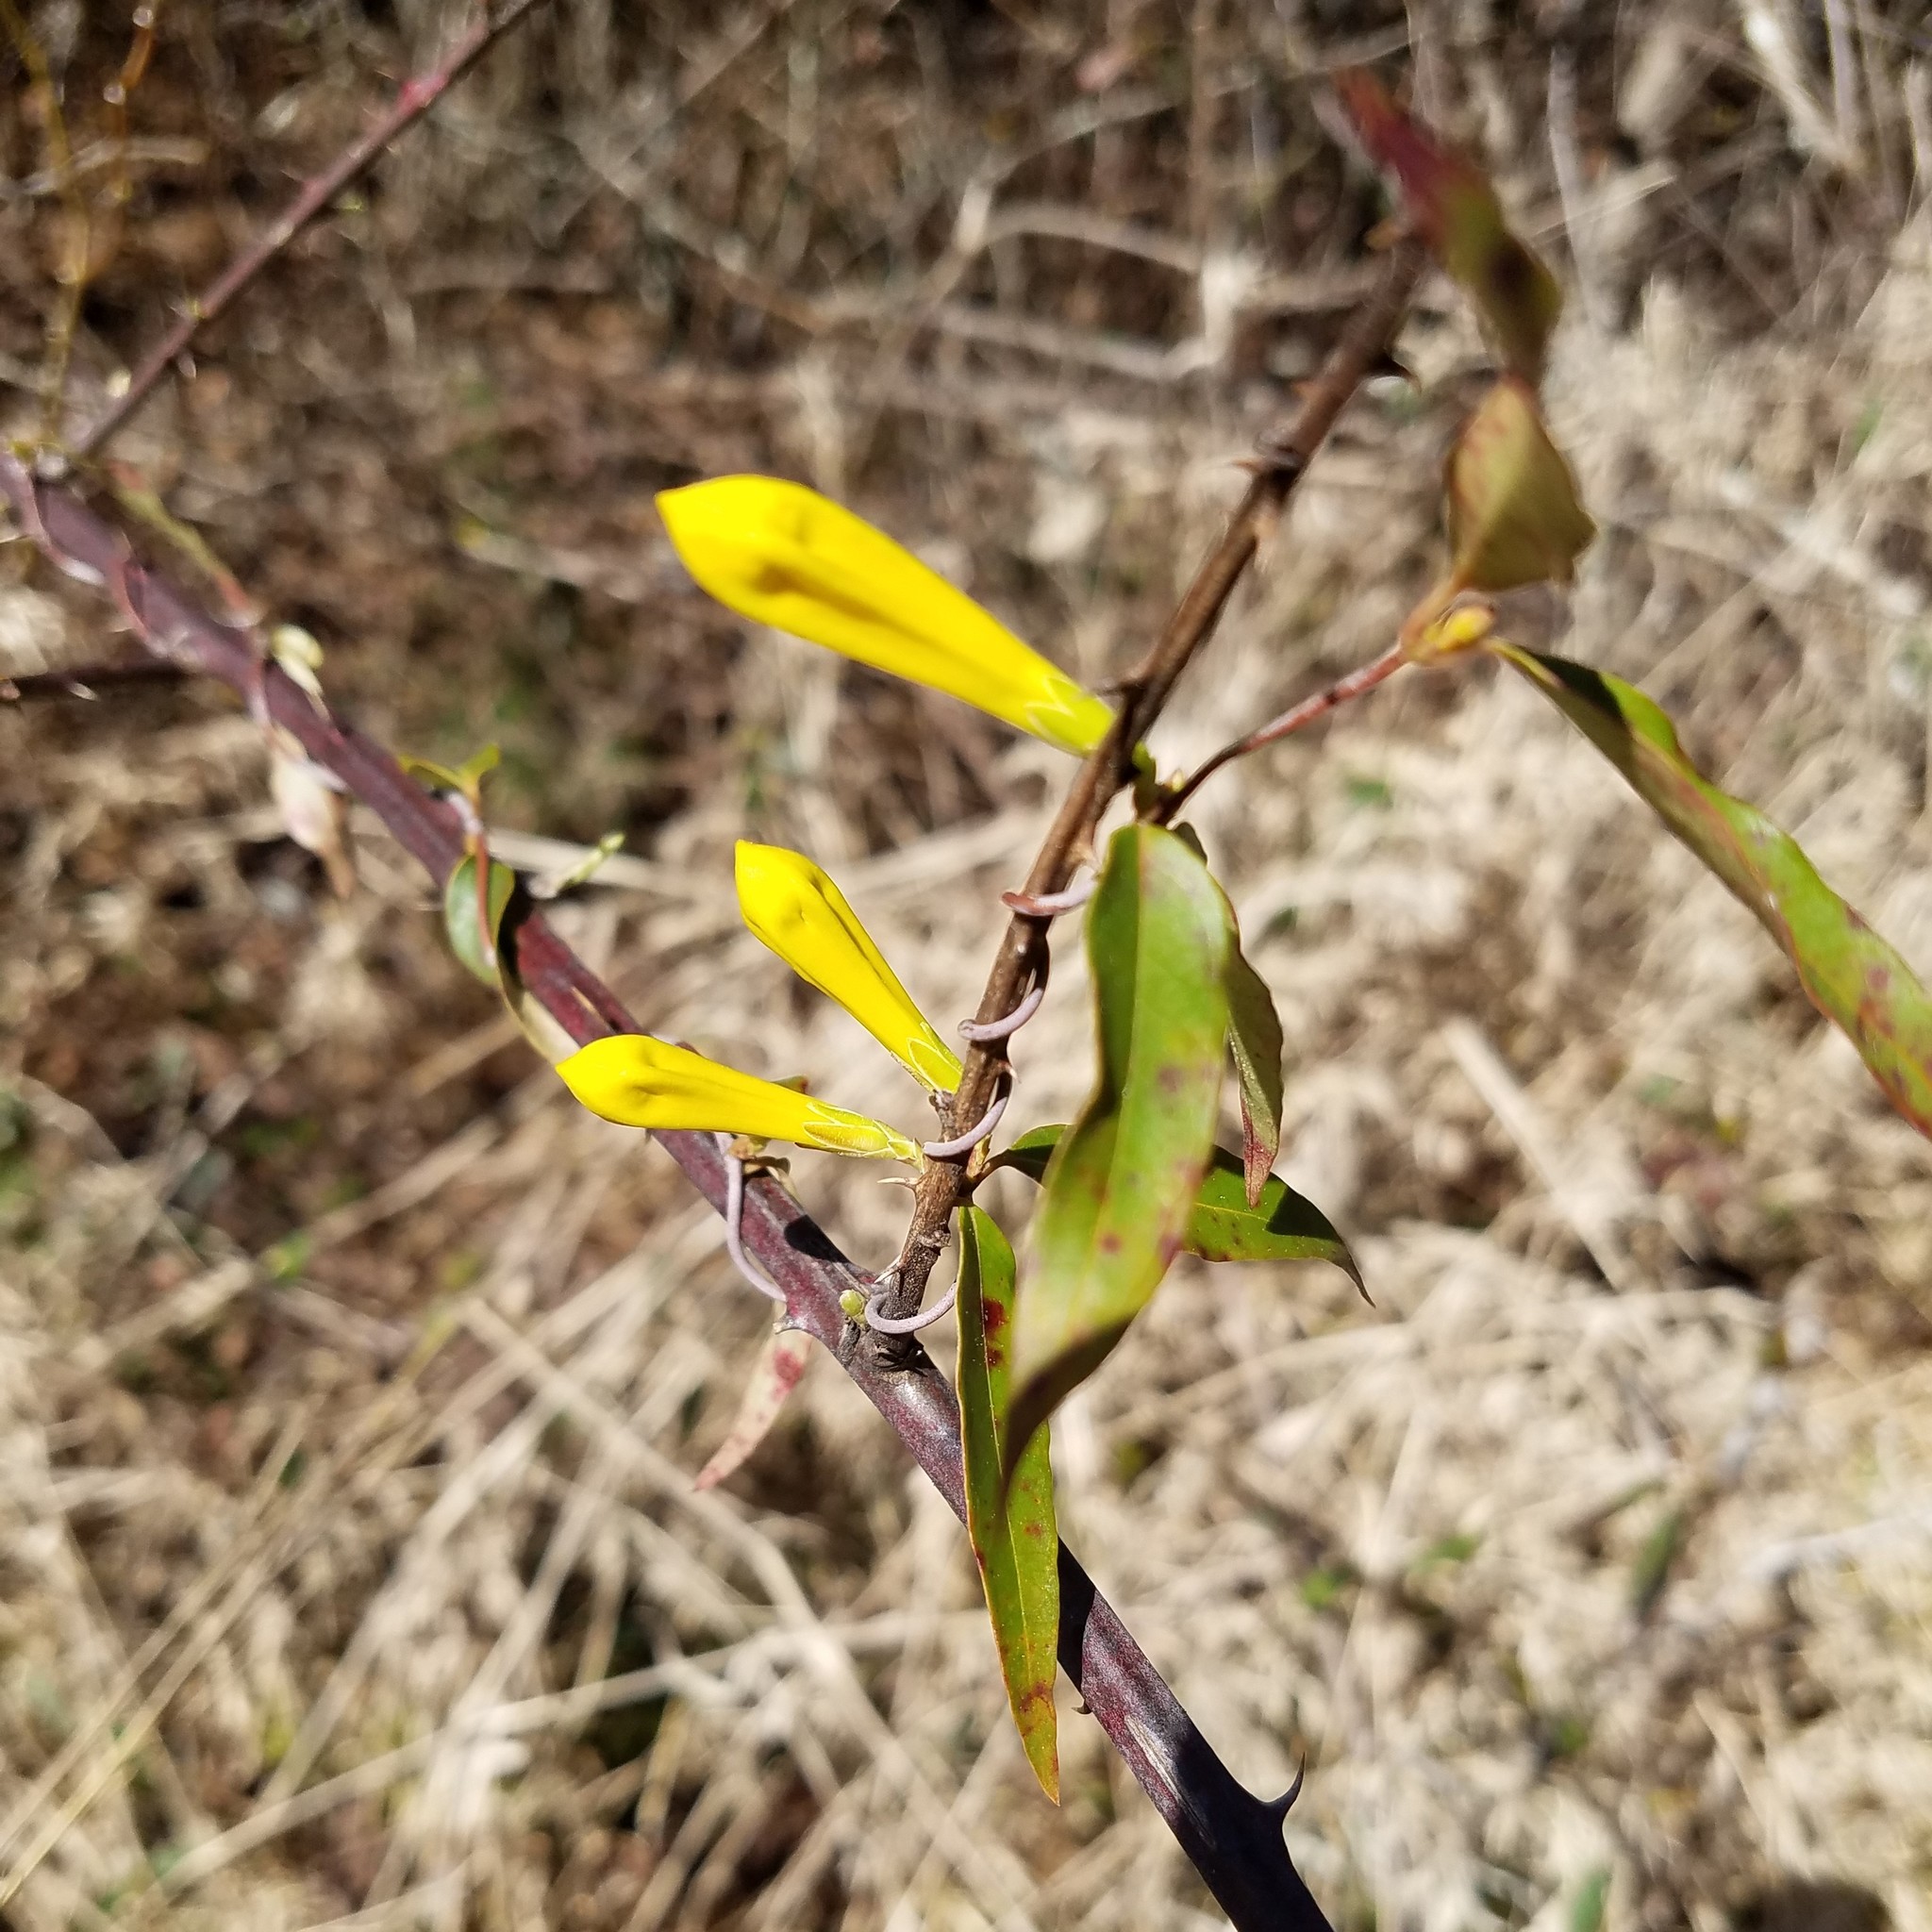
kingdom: Plantae
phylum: Tracheophyta
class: Magnoliopsida
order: Gentianales
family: Gelsemiaceae
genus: Gelsemium
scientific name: Gelsemium sempervirens
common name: Carolina-jasmine
